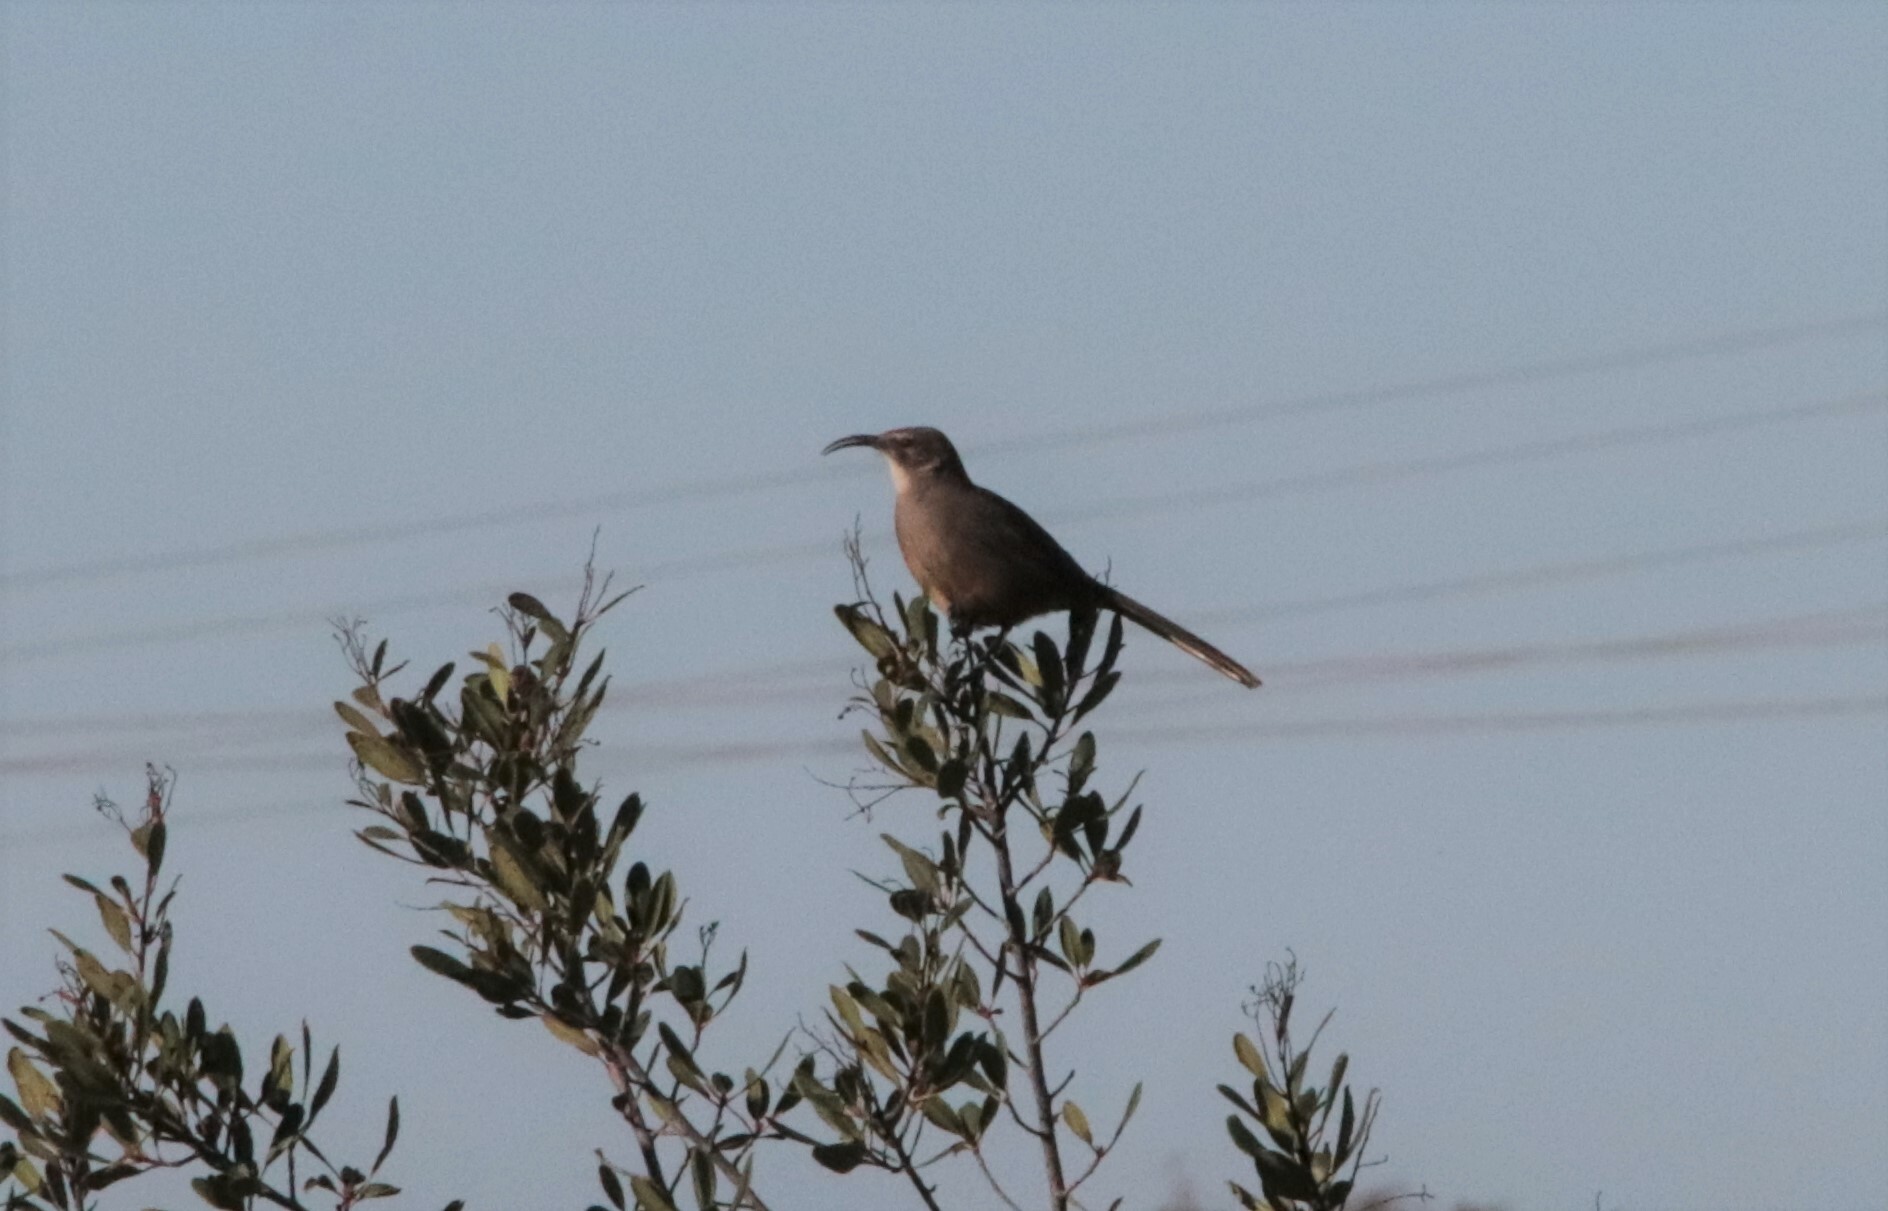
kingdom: Animalia
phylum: Chordata
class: Aves
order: Passeriformes
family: Mimidae
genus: Toxostoma
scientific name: Toxostoma redivivum
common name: California thrasher
